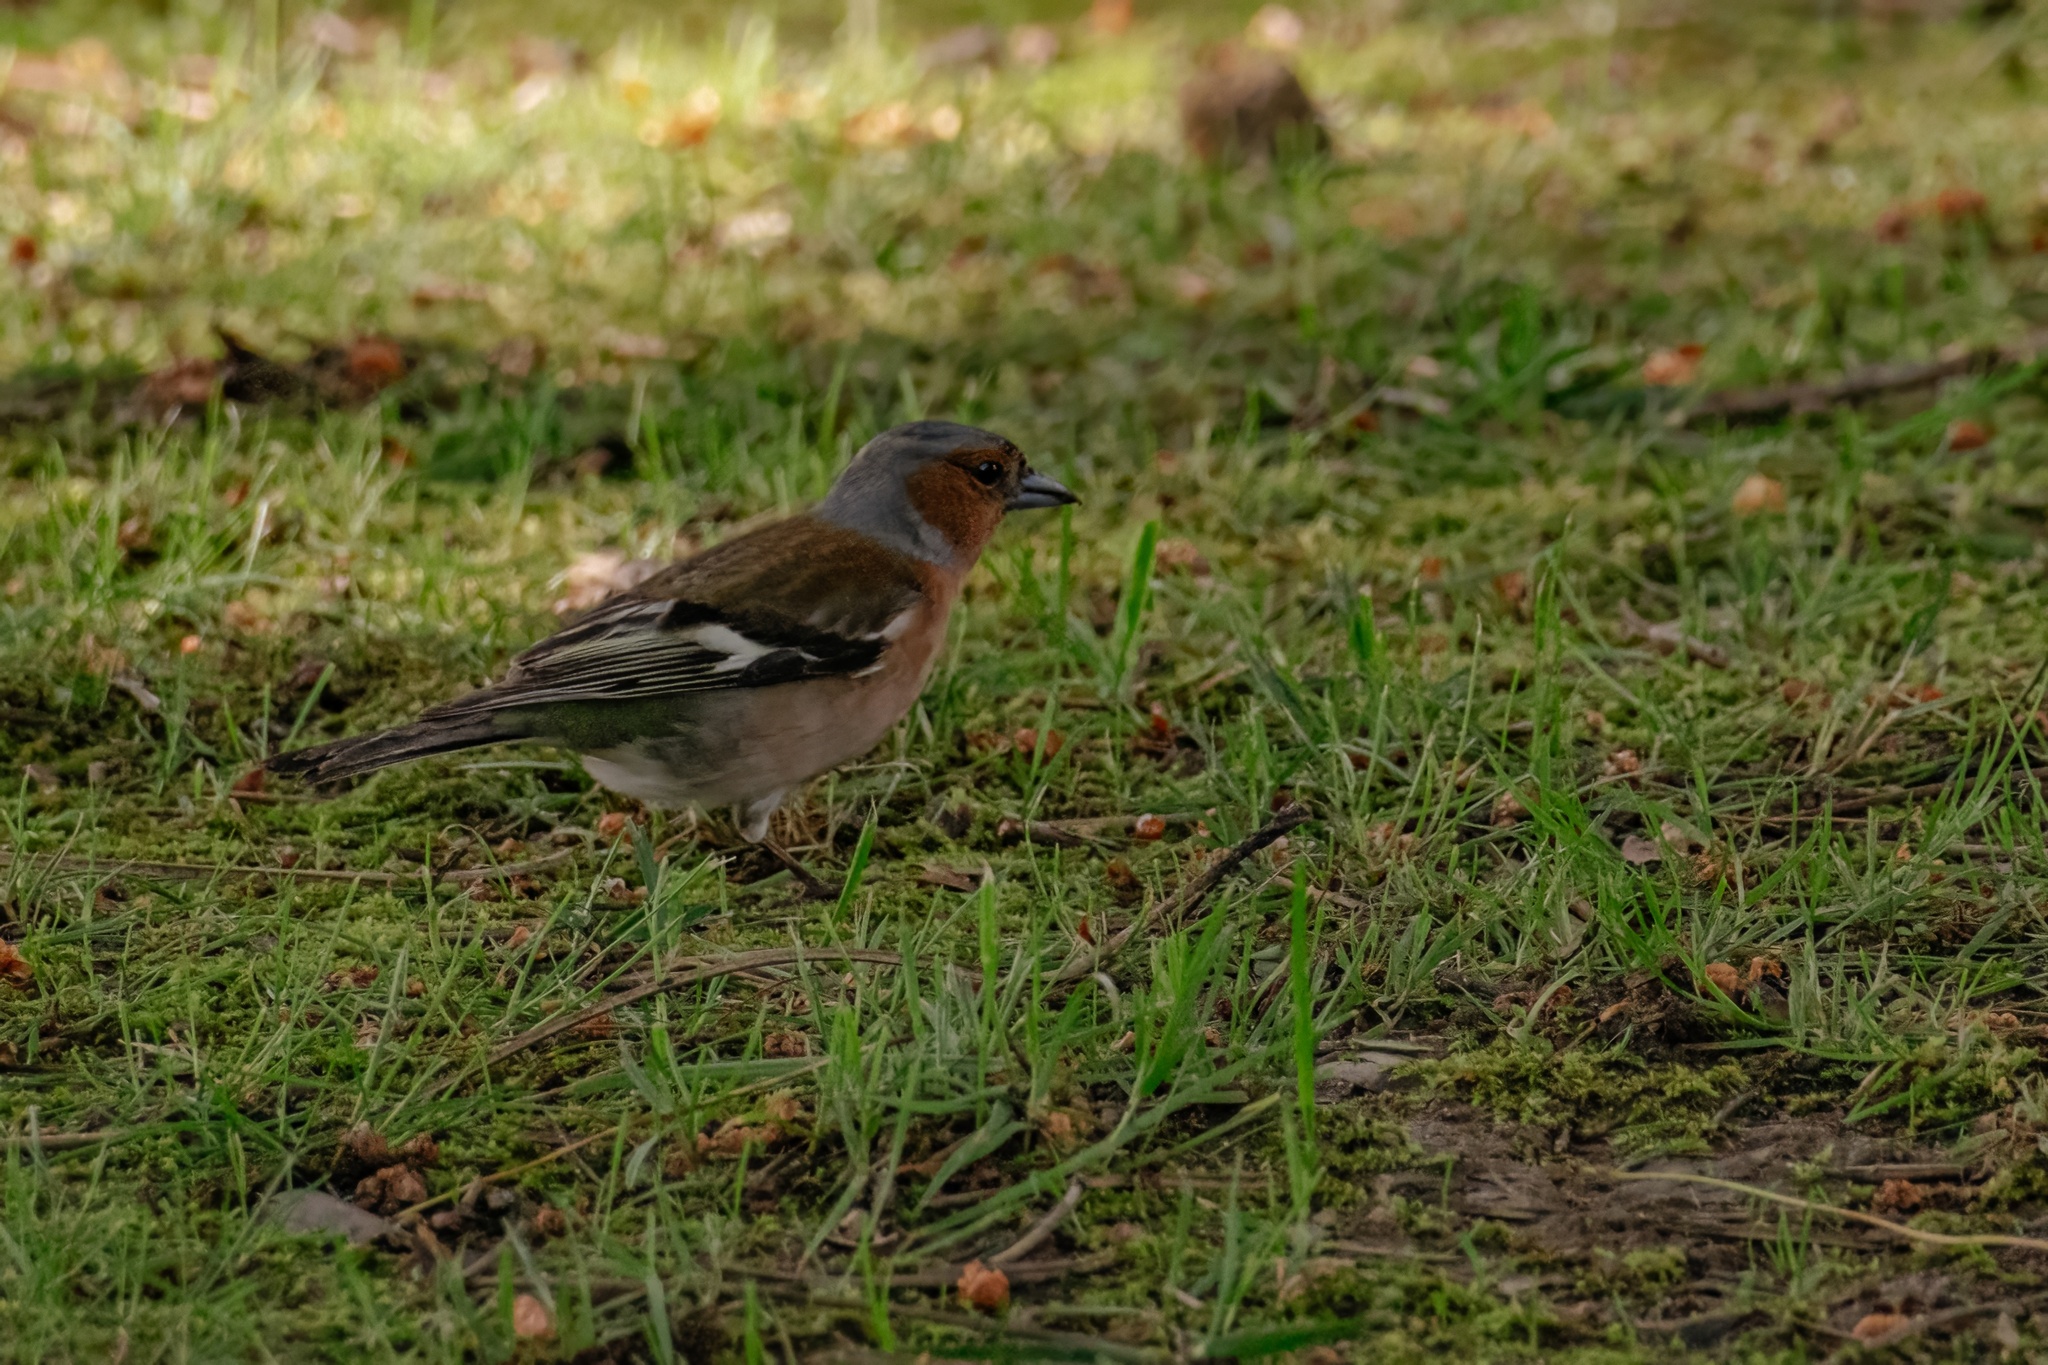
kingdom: Animalia
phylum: Chordata
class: Aves
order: Passeriformes
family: Fringillidae
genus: Fringilla
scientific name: Fringilla coelebs
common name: Common chaffinch
